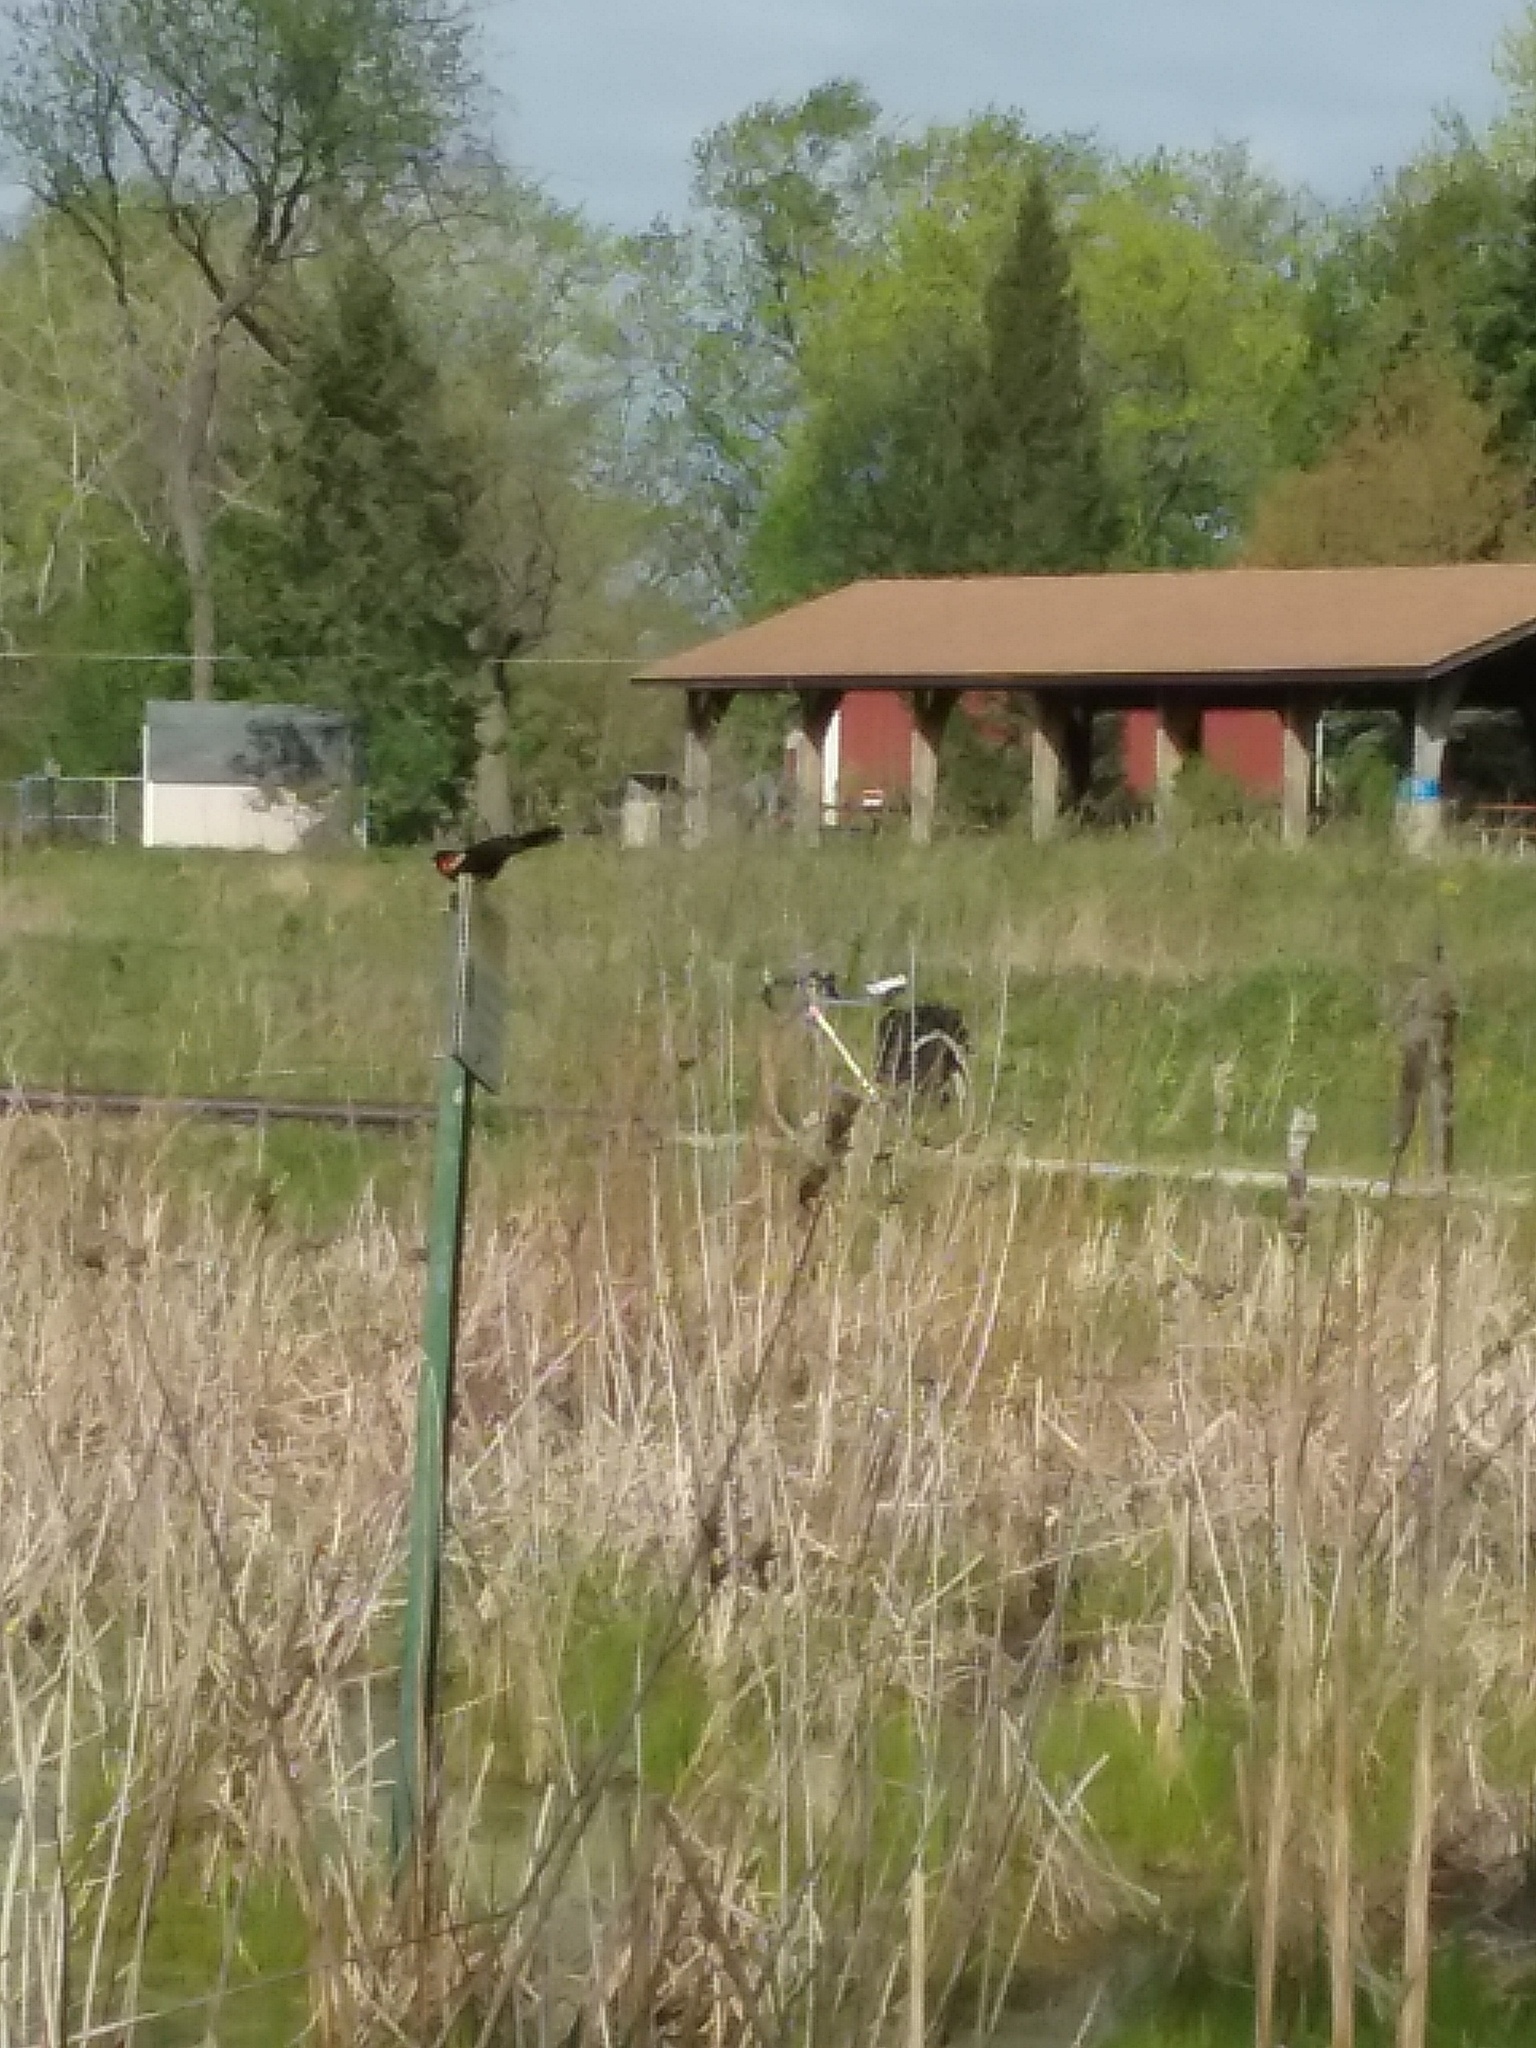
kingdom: Animalia
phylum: Chordata
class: Aves
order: Passeriformes
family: Icteridae
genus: Agelaius
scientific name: Agelaius phoeniceus
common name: Red-winged blackbird
